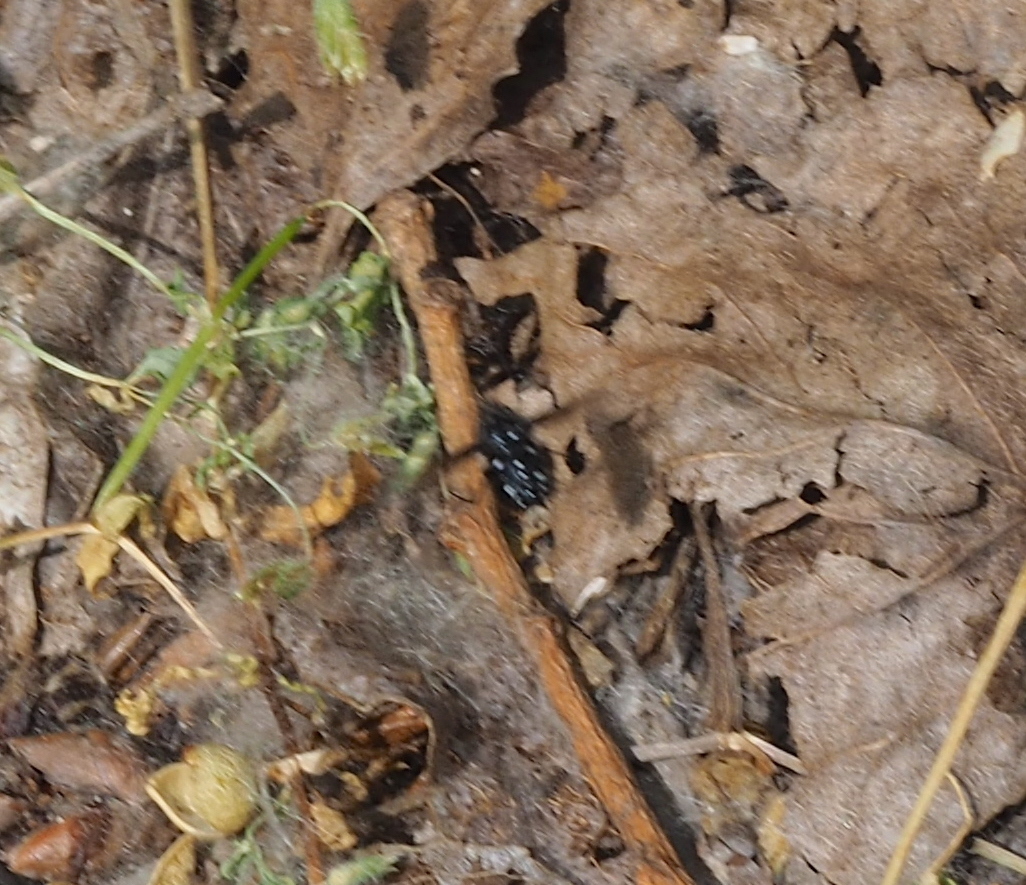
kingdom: Animalia
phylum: Arthropoda
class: Insecta
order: Diptera
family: Bombyliidae
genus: Bombylella
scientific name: Bombylella atra
